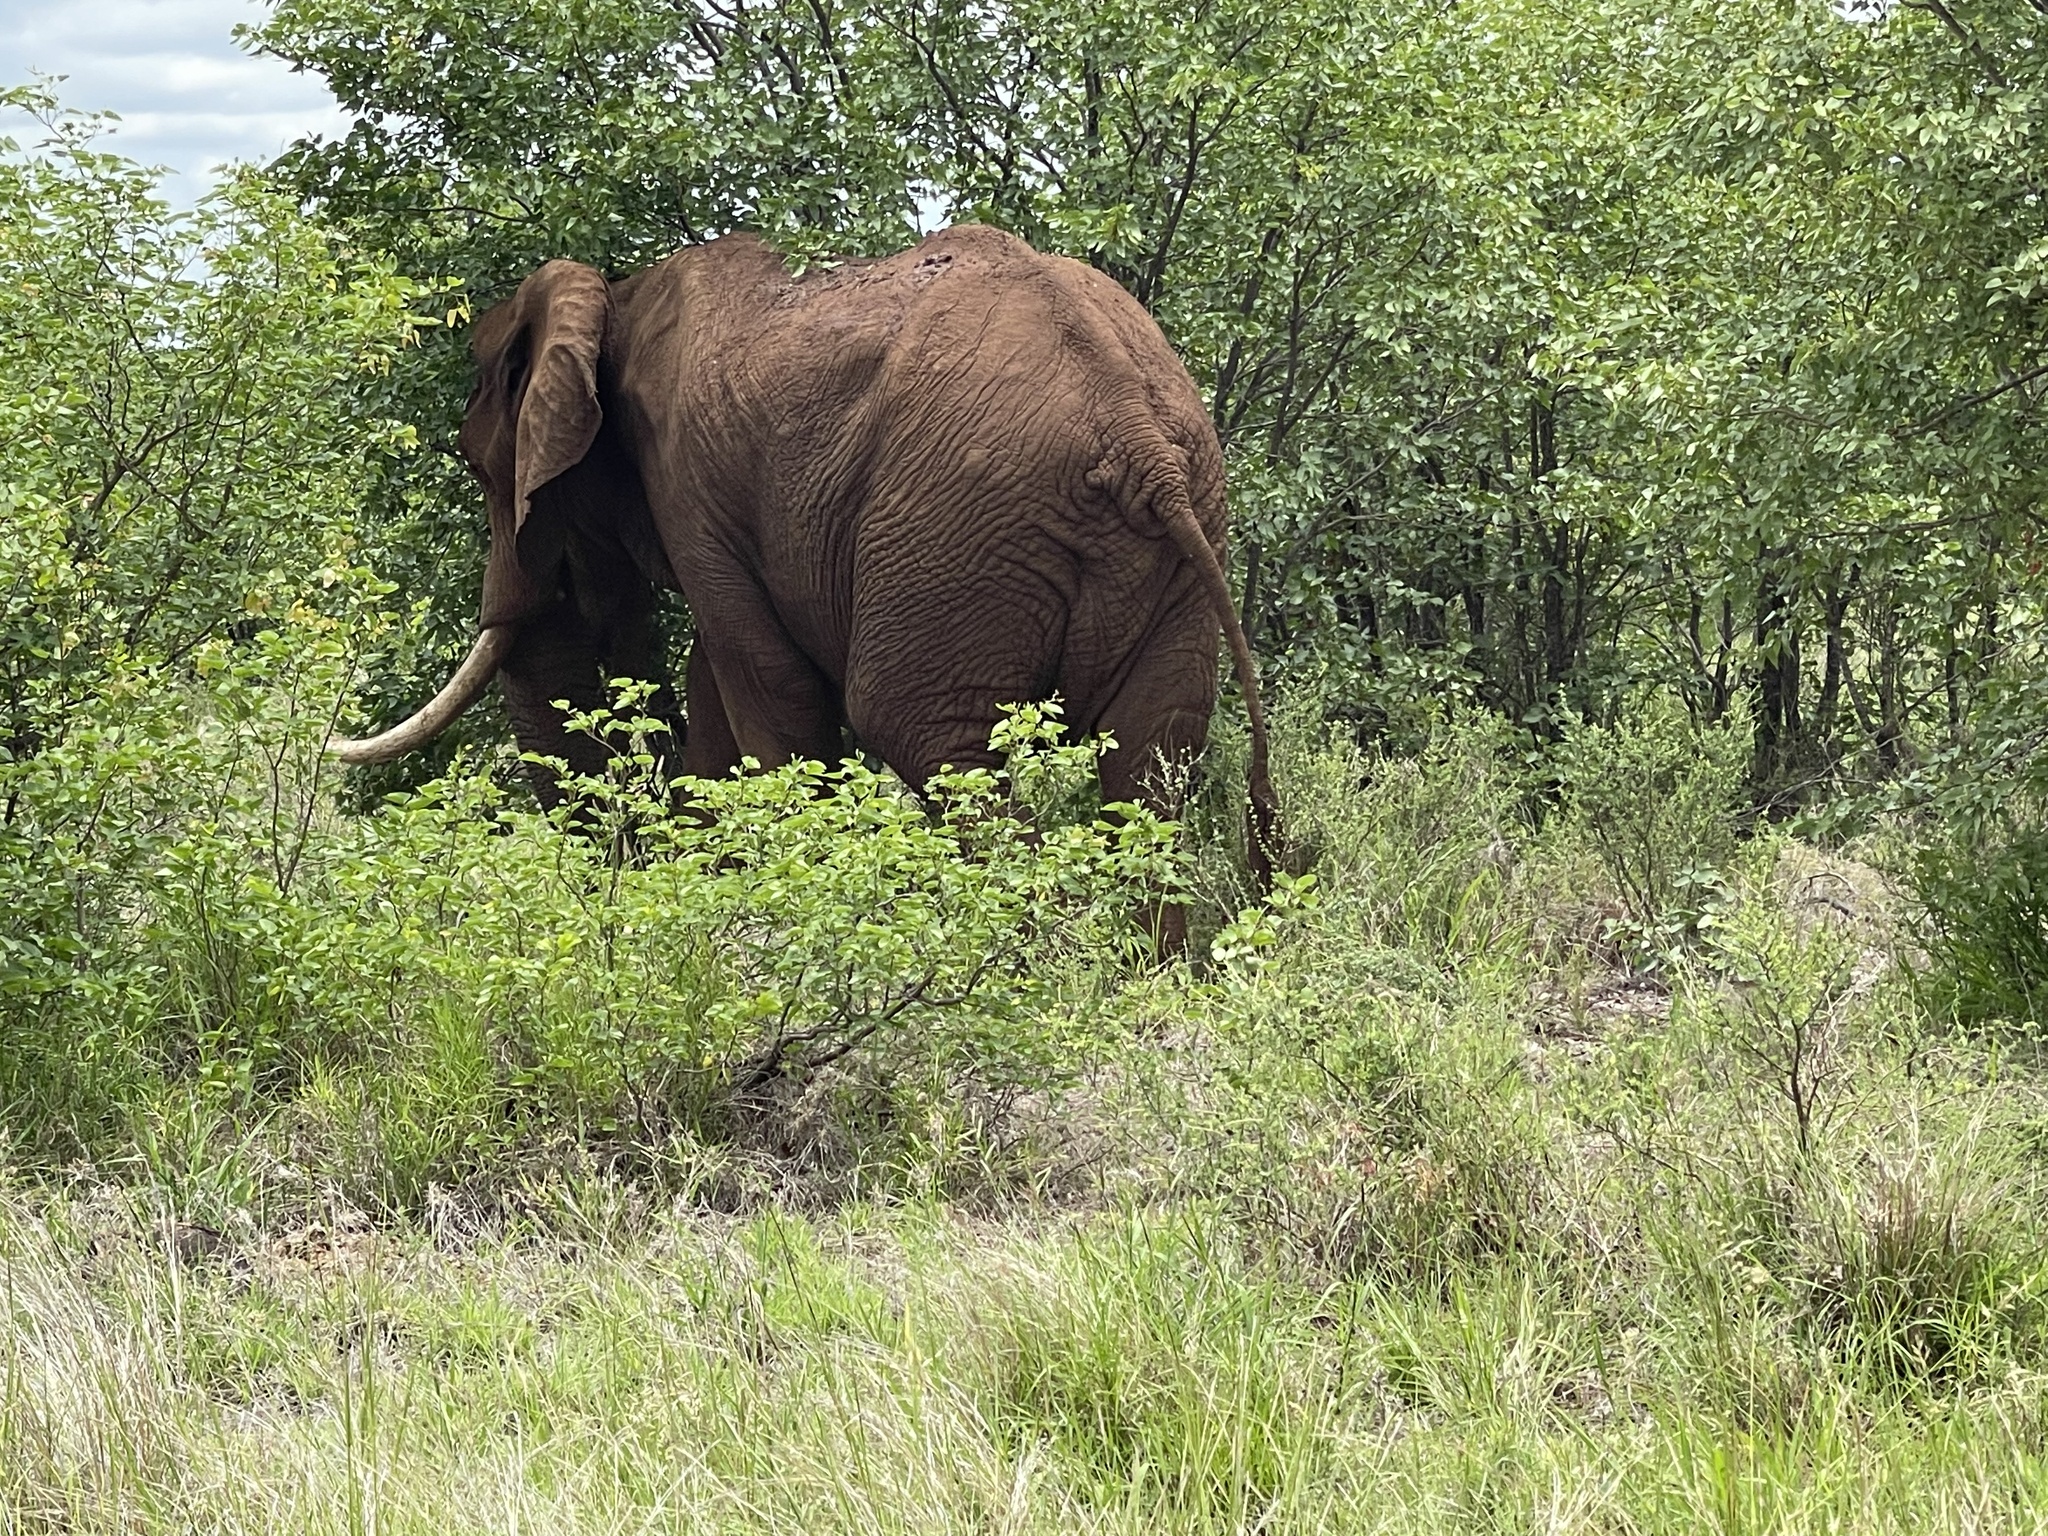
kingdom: Animalia
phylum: Chordata
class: Mammalia
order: Proboscidea
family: Elephantidae
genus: Loxodonta
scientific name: Loxodonta africana
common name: African elephant
